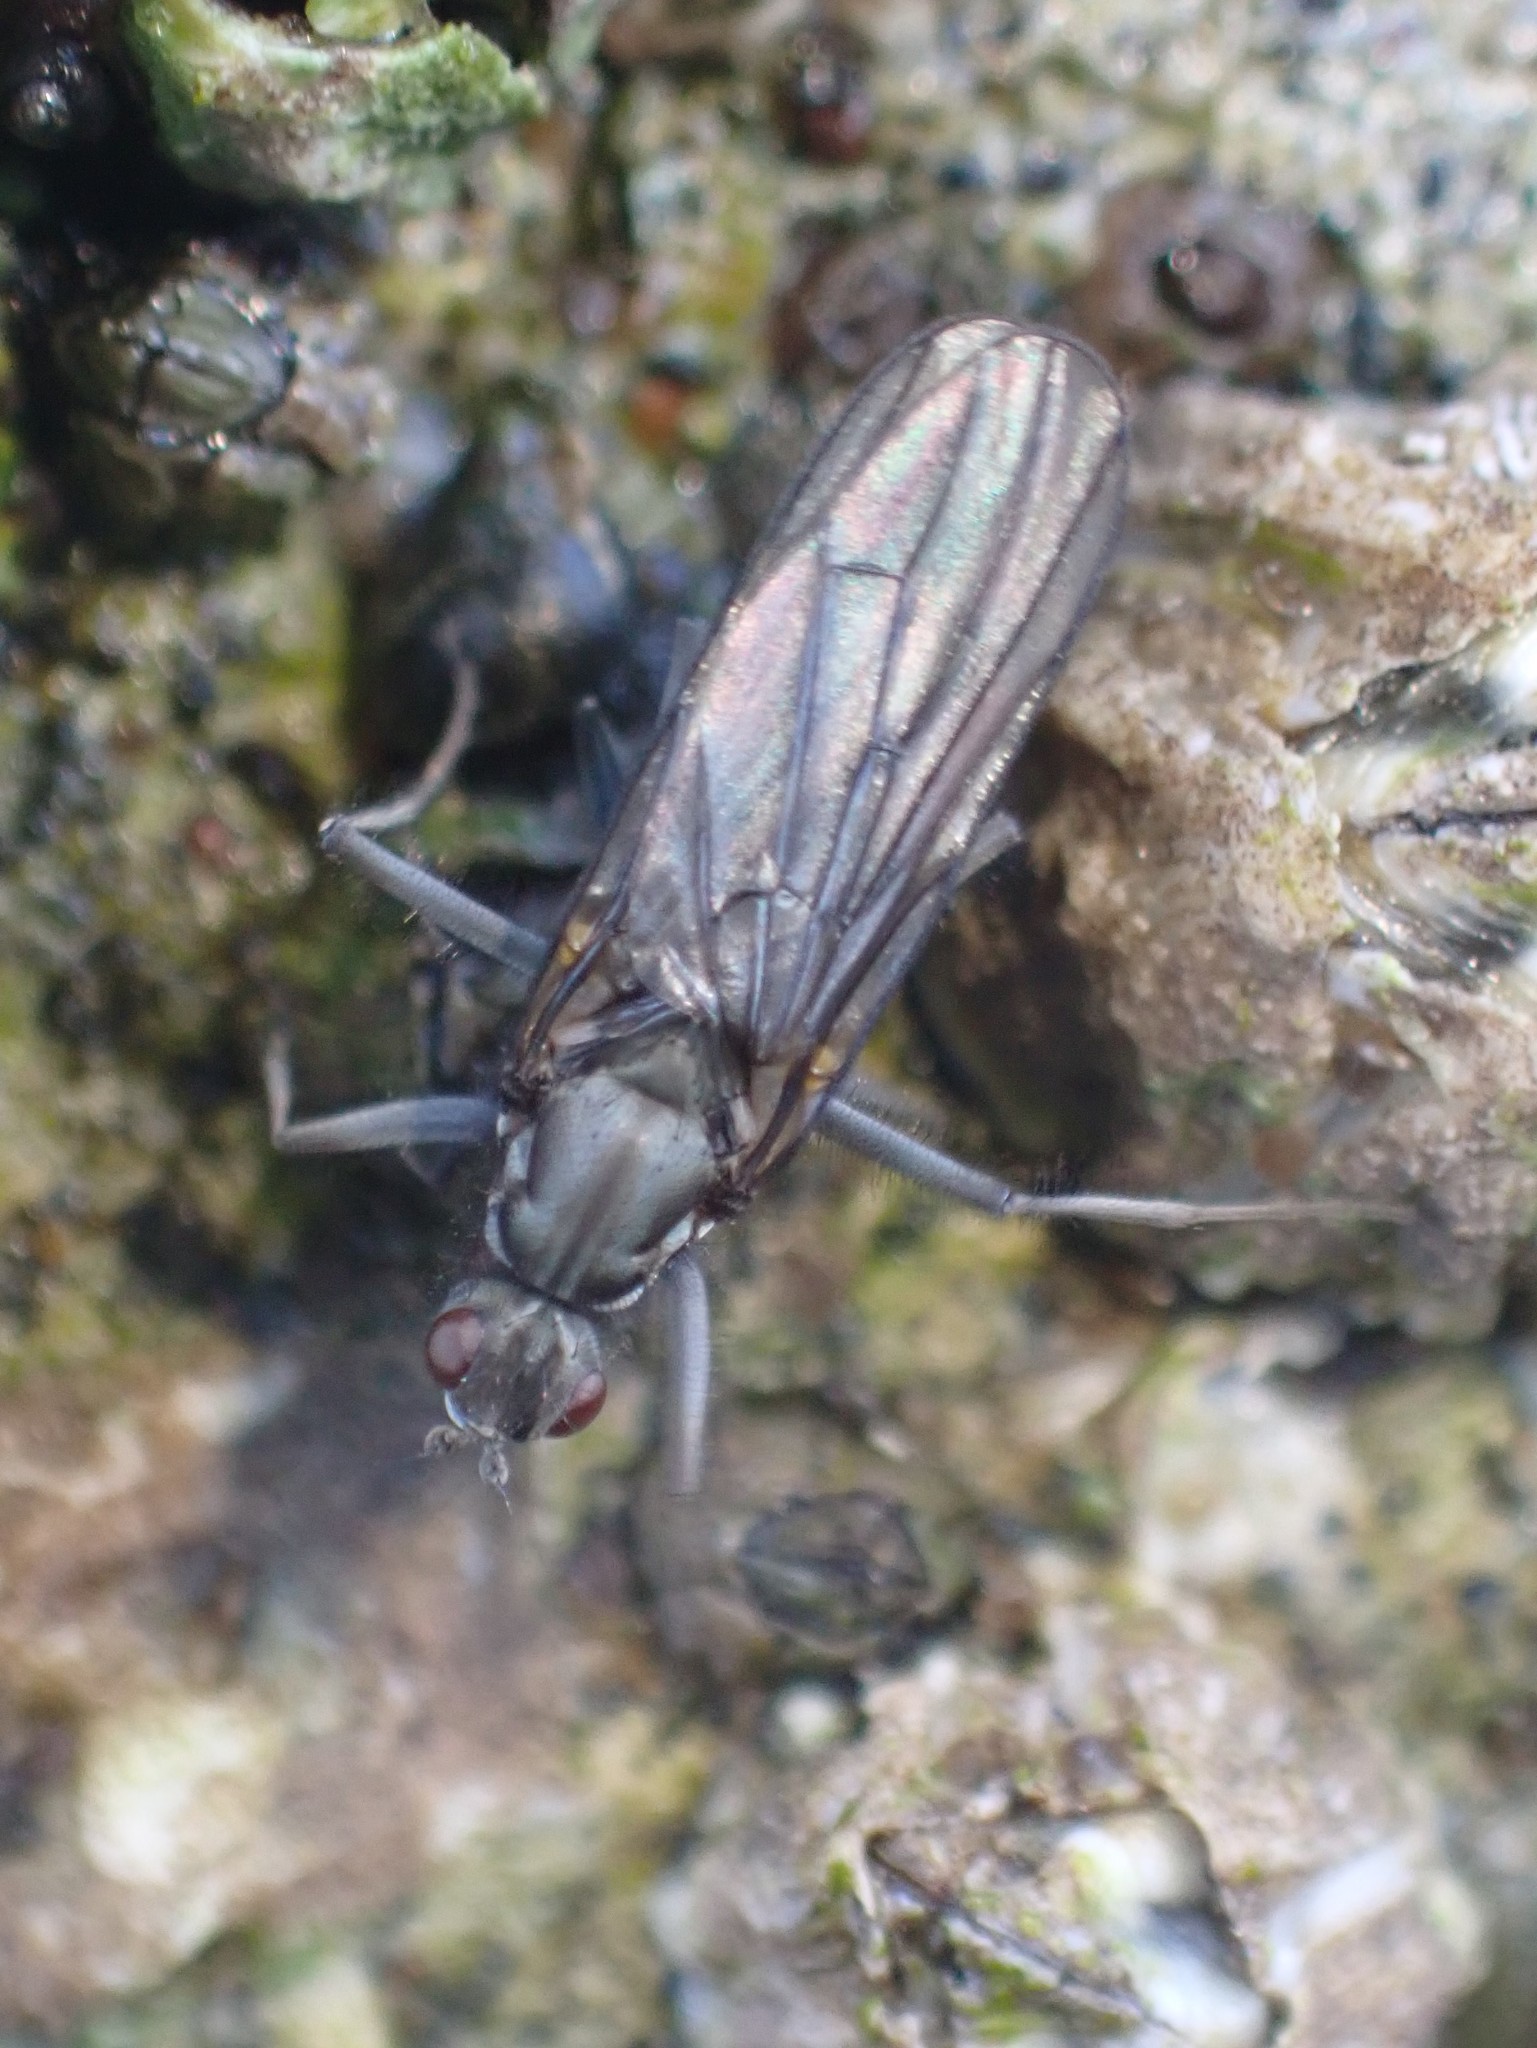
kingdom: Animalia
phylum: Arthropoda
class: Insecta
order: Diptera
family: Dryomyzidae
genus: Oedoparena
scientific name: Oedoparena glauca
